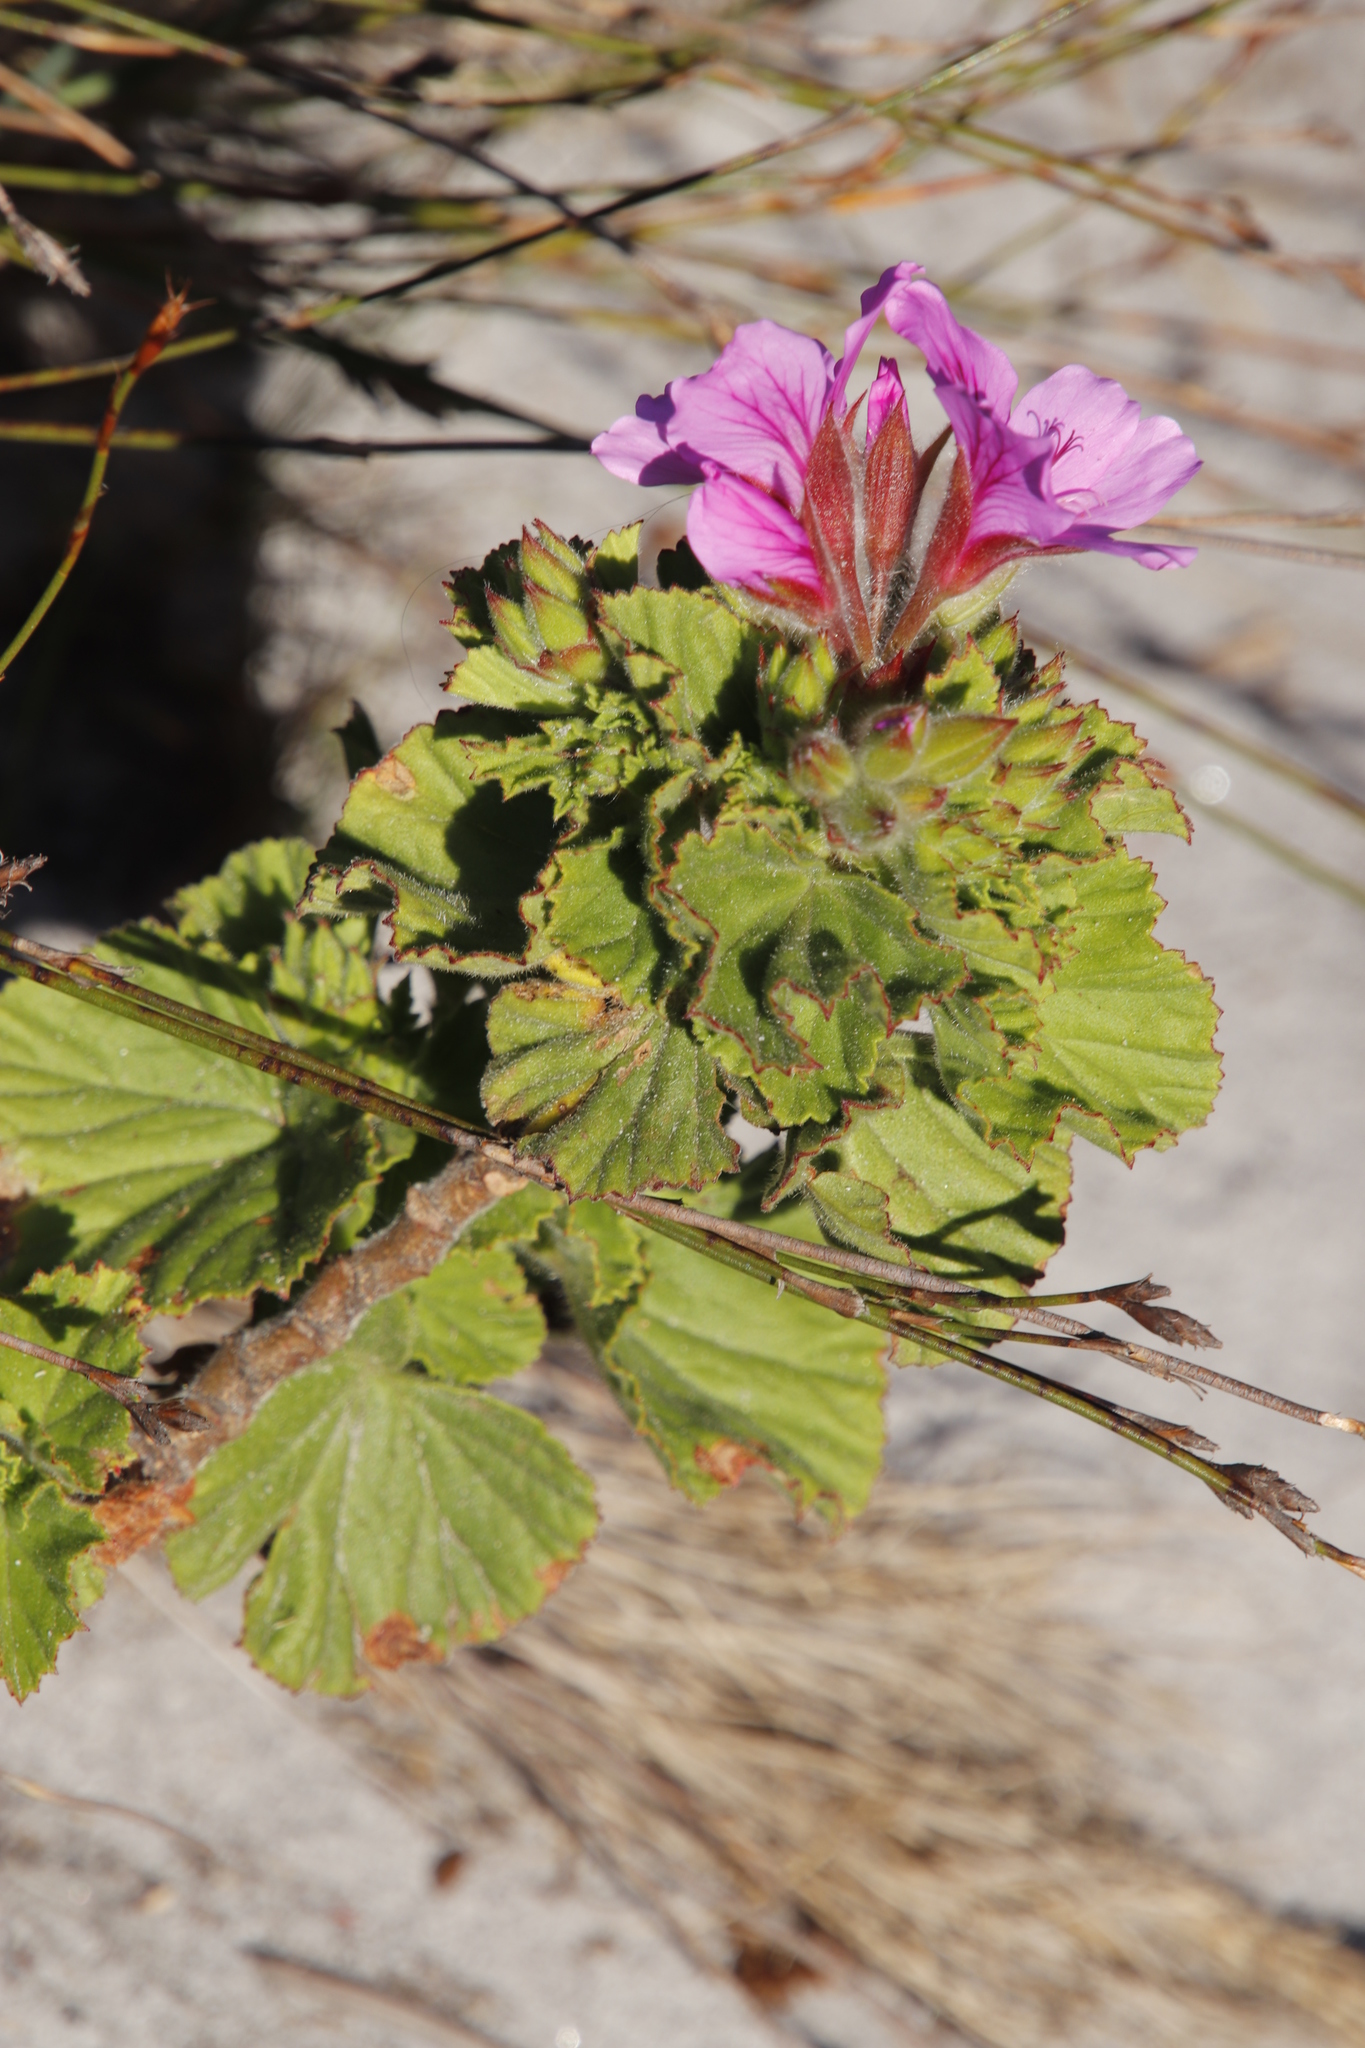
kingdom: Plantae
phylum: Tracheophyta
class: Magnoliopsida
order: Geraniales
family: Geraniaceae
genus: Pelargonium
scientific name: Pelargonium cucullatum
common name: Tree pelargonium
